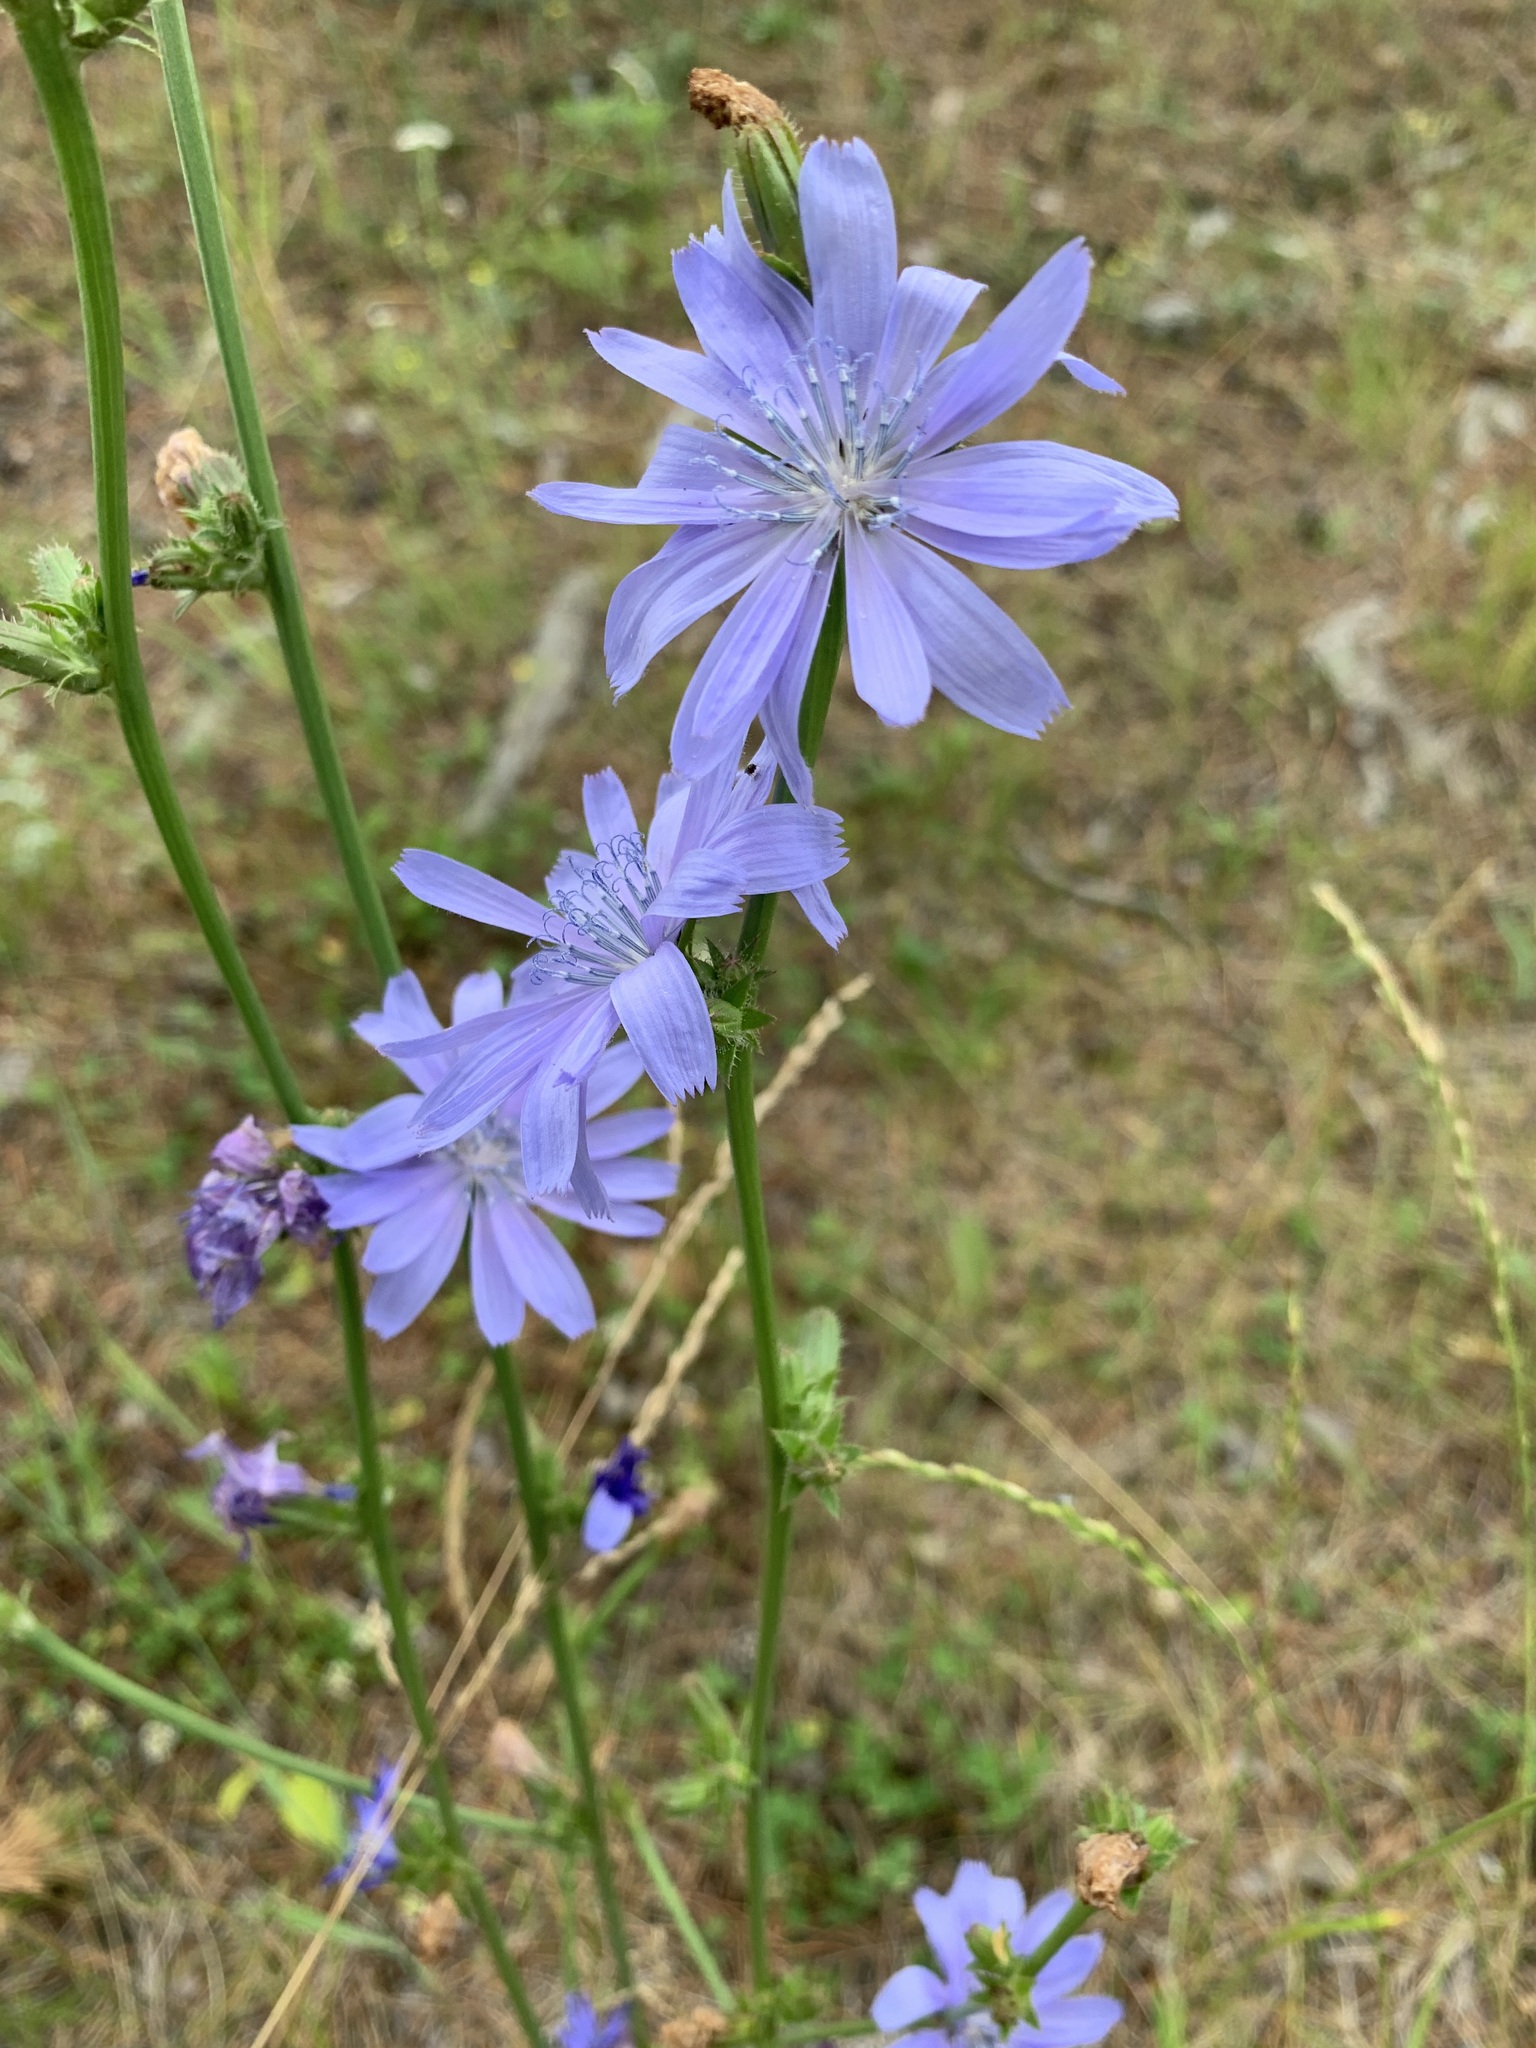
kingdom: Plantae
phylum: Tracheophyta
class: Magnoliopsida
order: Asterales
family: Asteraceae
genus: Cichorium
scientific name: Cichorium intybus
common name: Chicory
